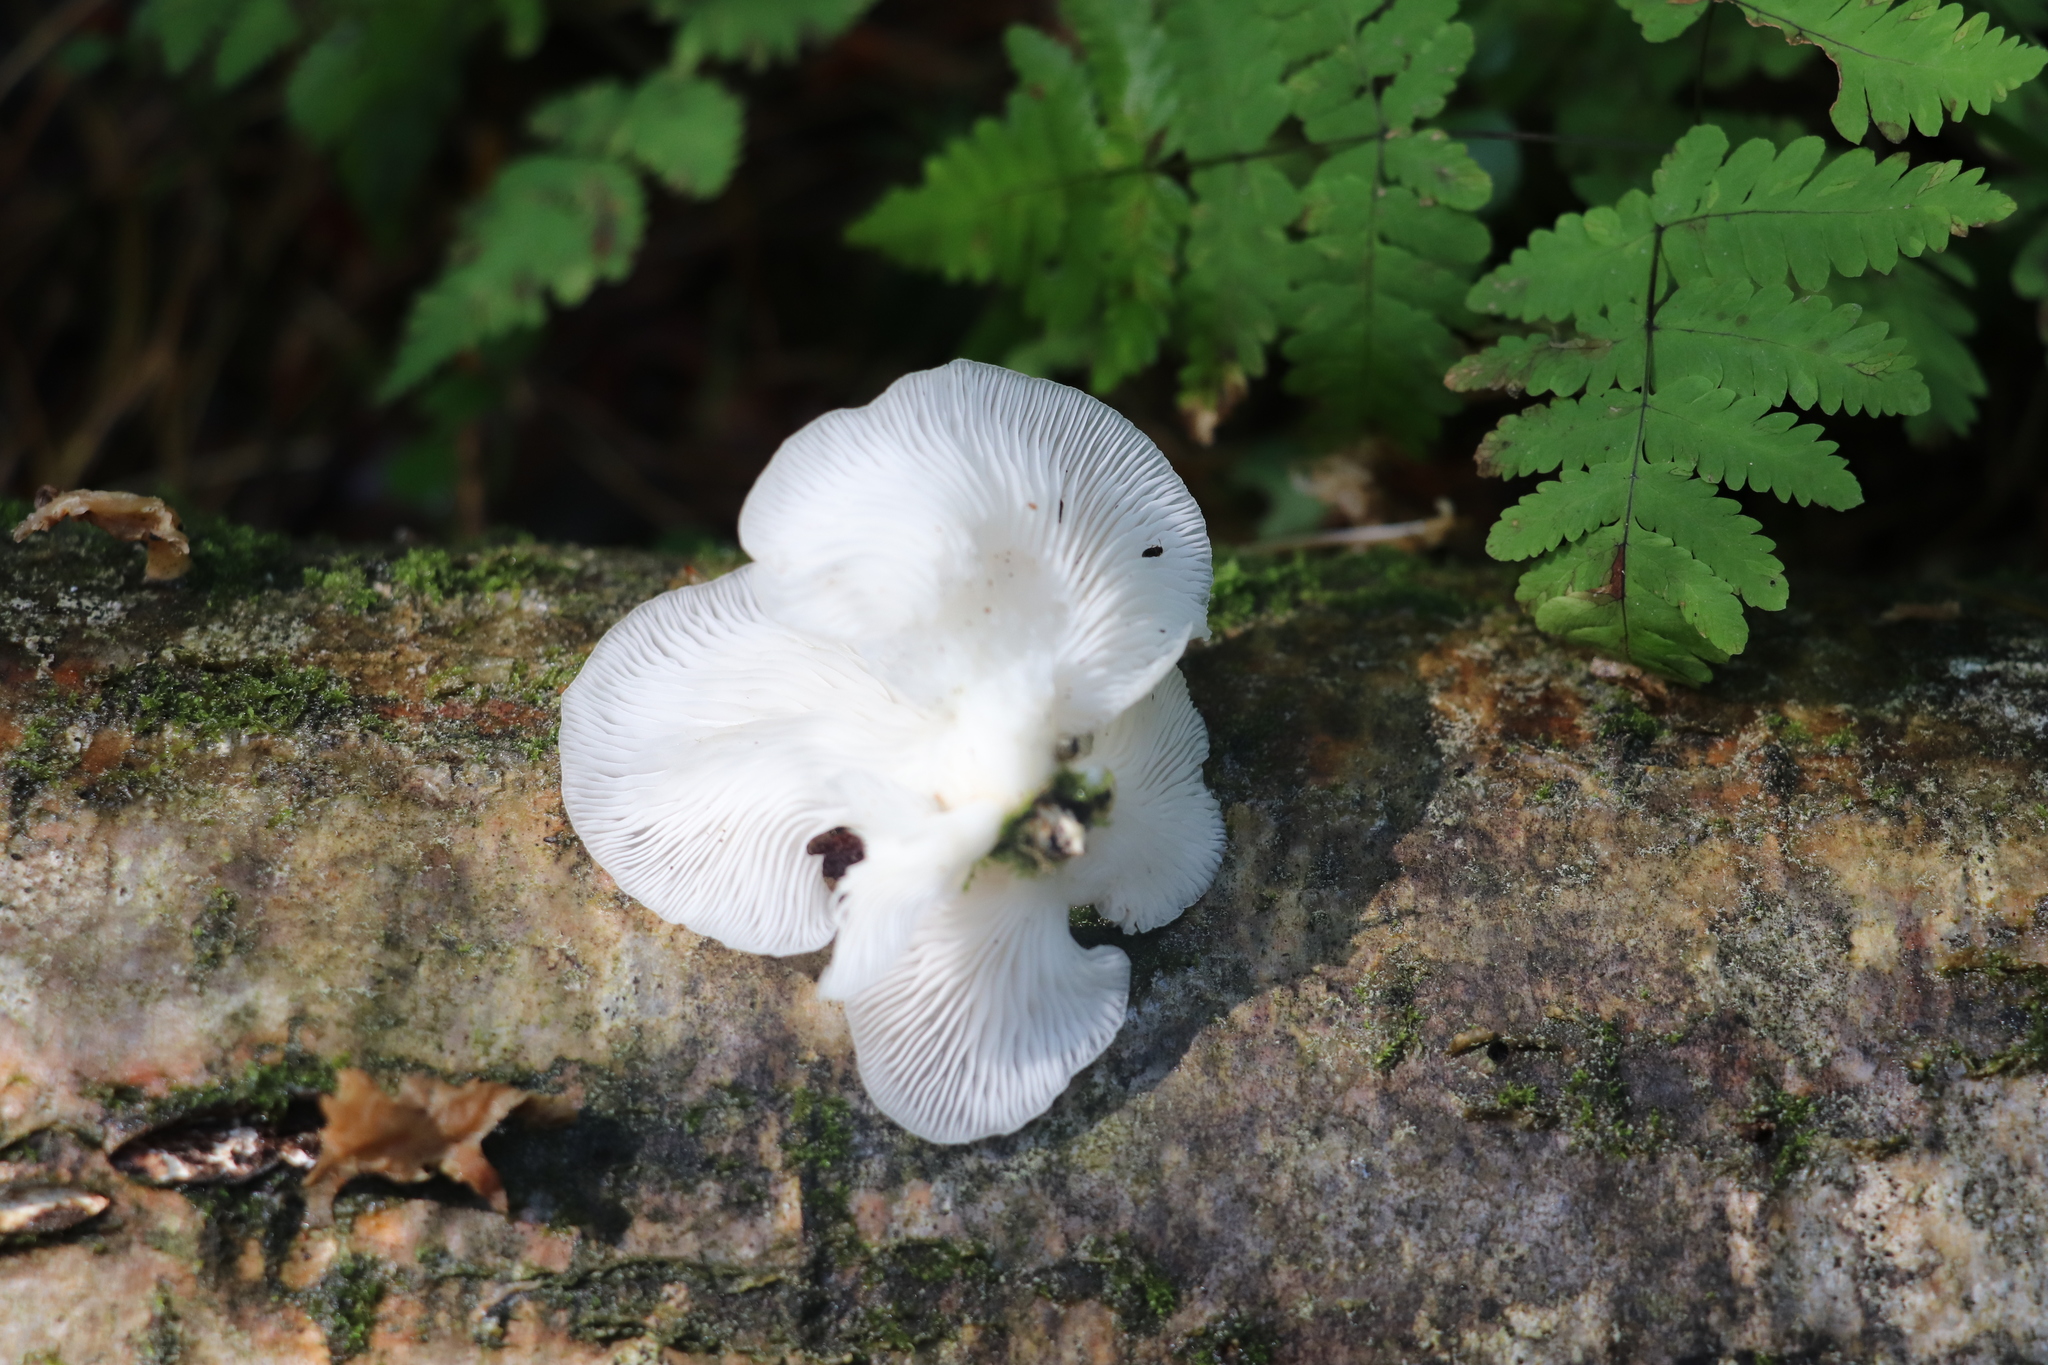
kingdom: Fungi
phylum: Basidiomycota
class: Agaricomycetes
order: Agaricales
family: Pleurotaceae
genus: Pleurotus
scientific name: Pleurotus pulmonarius
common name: Pale oyster
